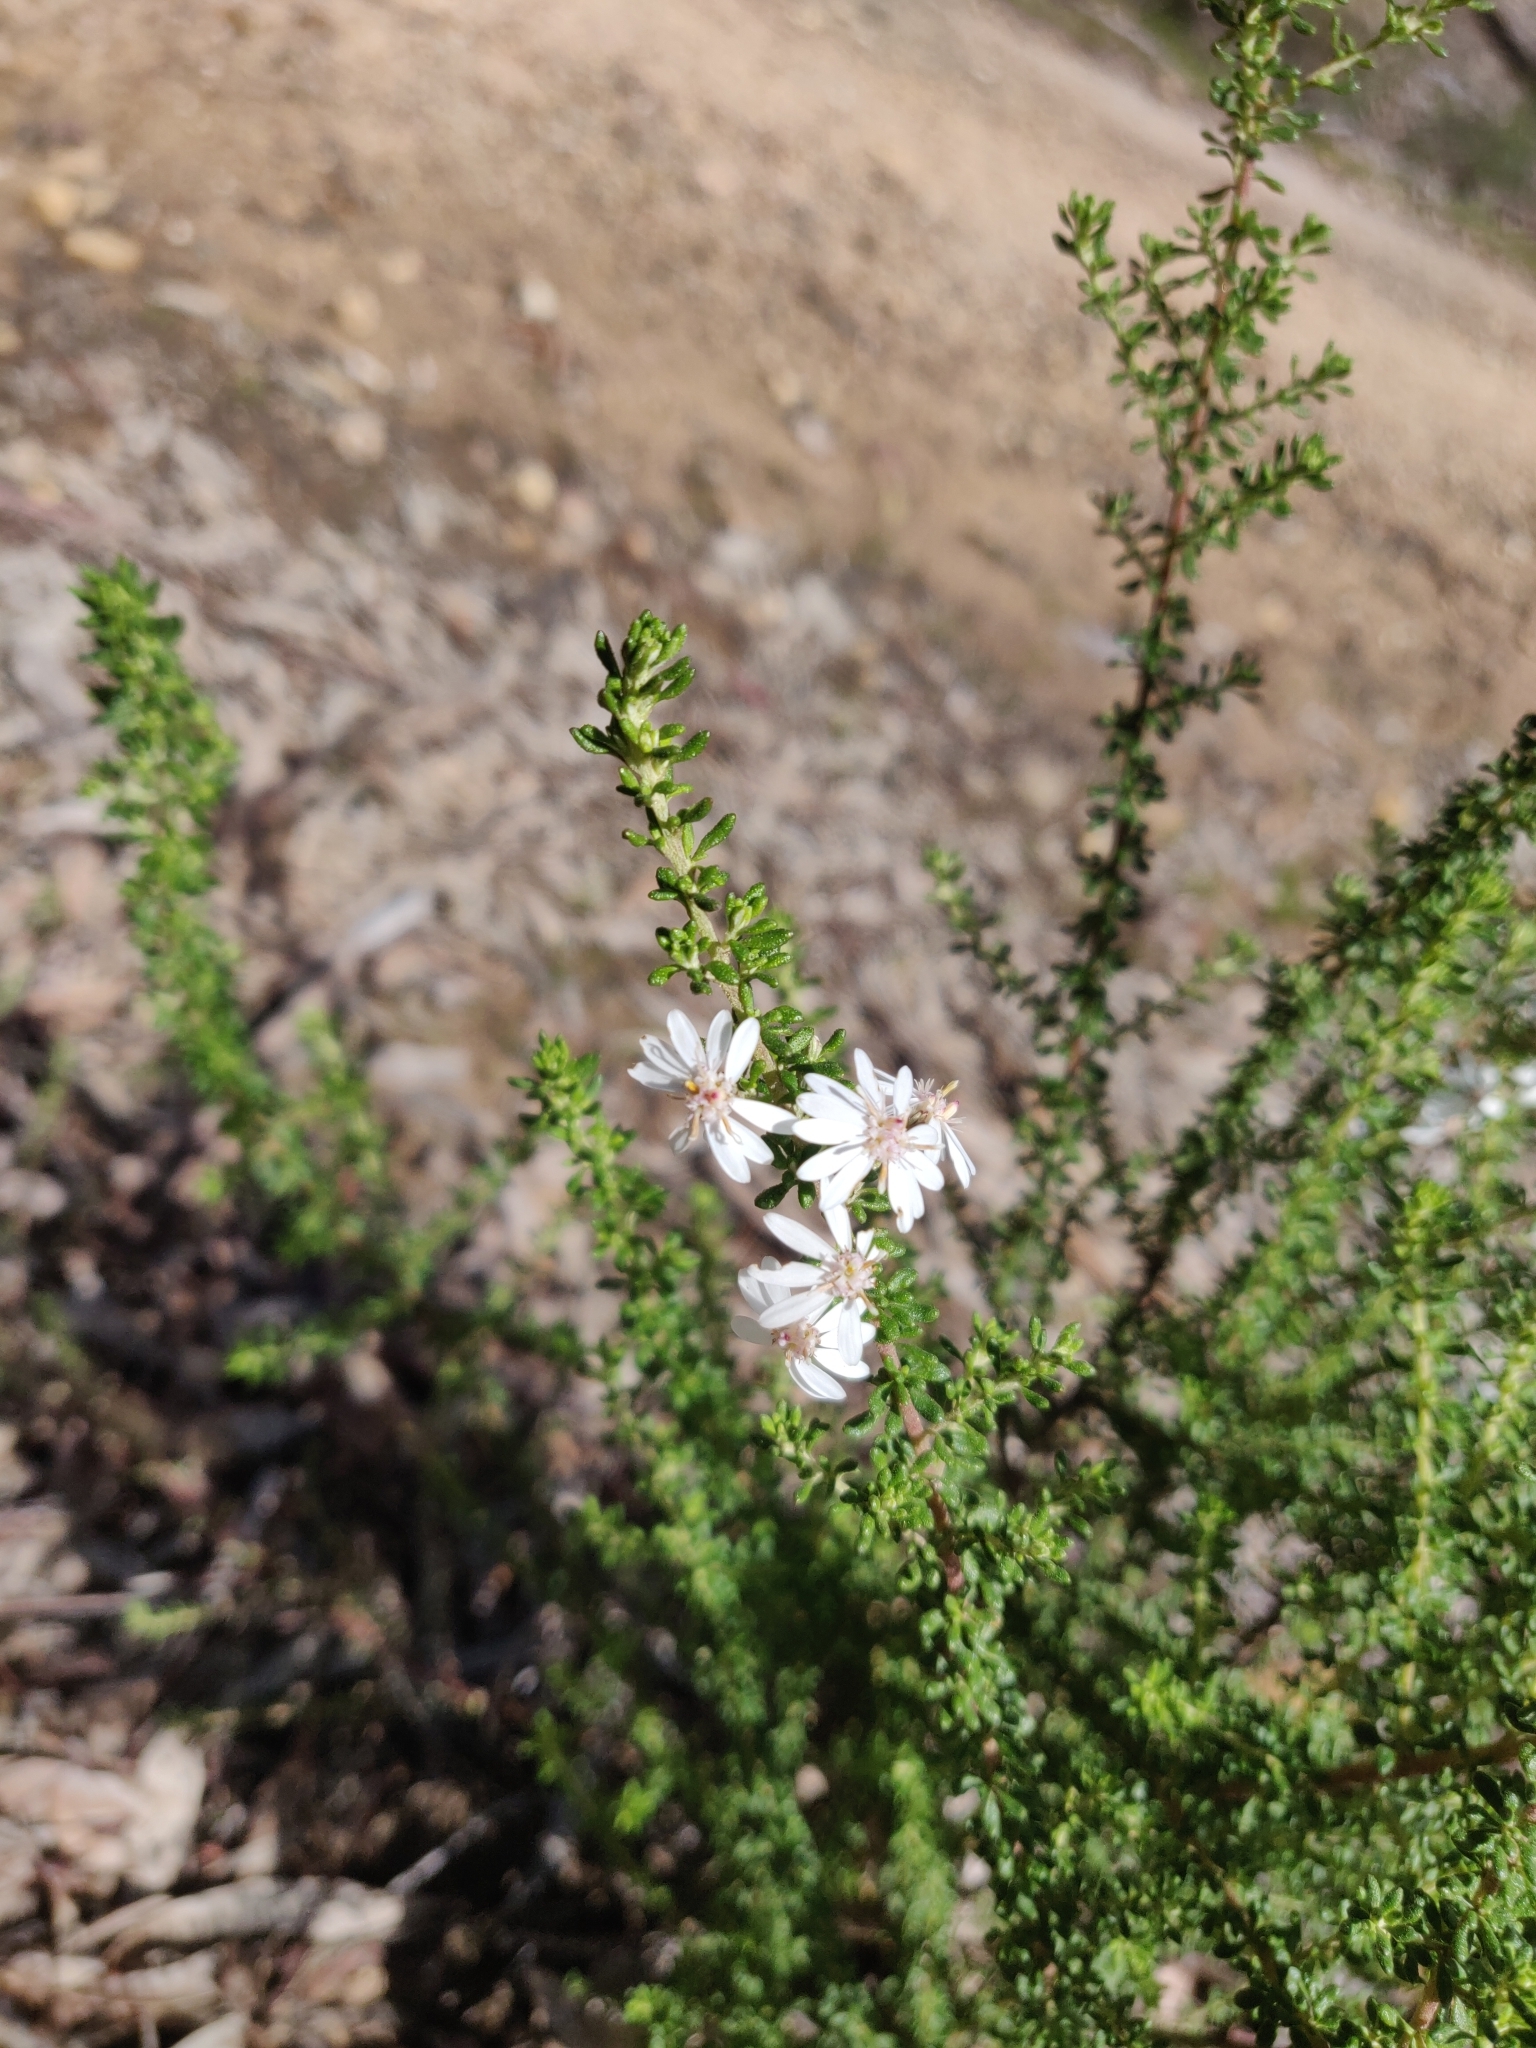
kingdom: Plantae
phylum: Tracheophyta
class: Magnoliopsida
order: Asterales
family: Asteraceae
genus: Olearia
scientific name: Olearia microphylla
